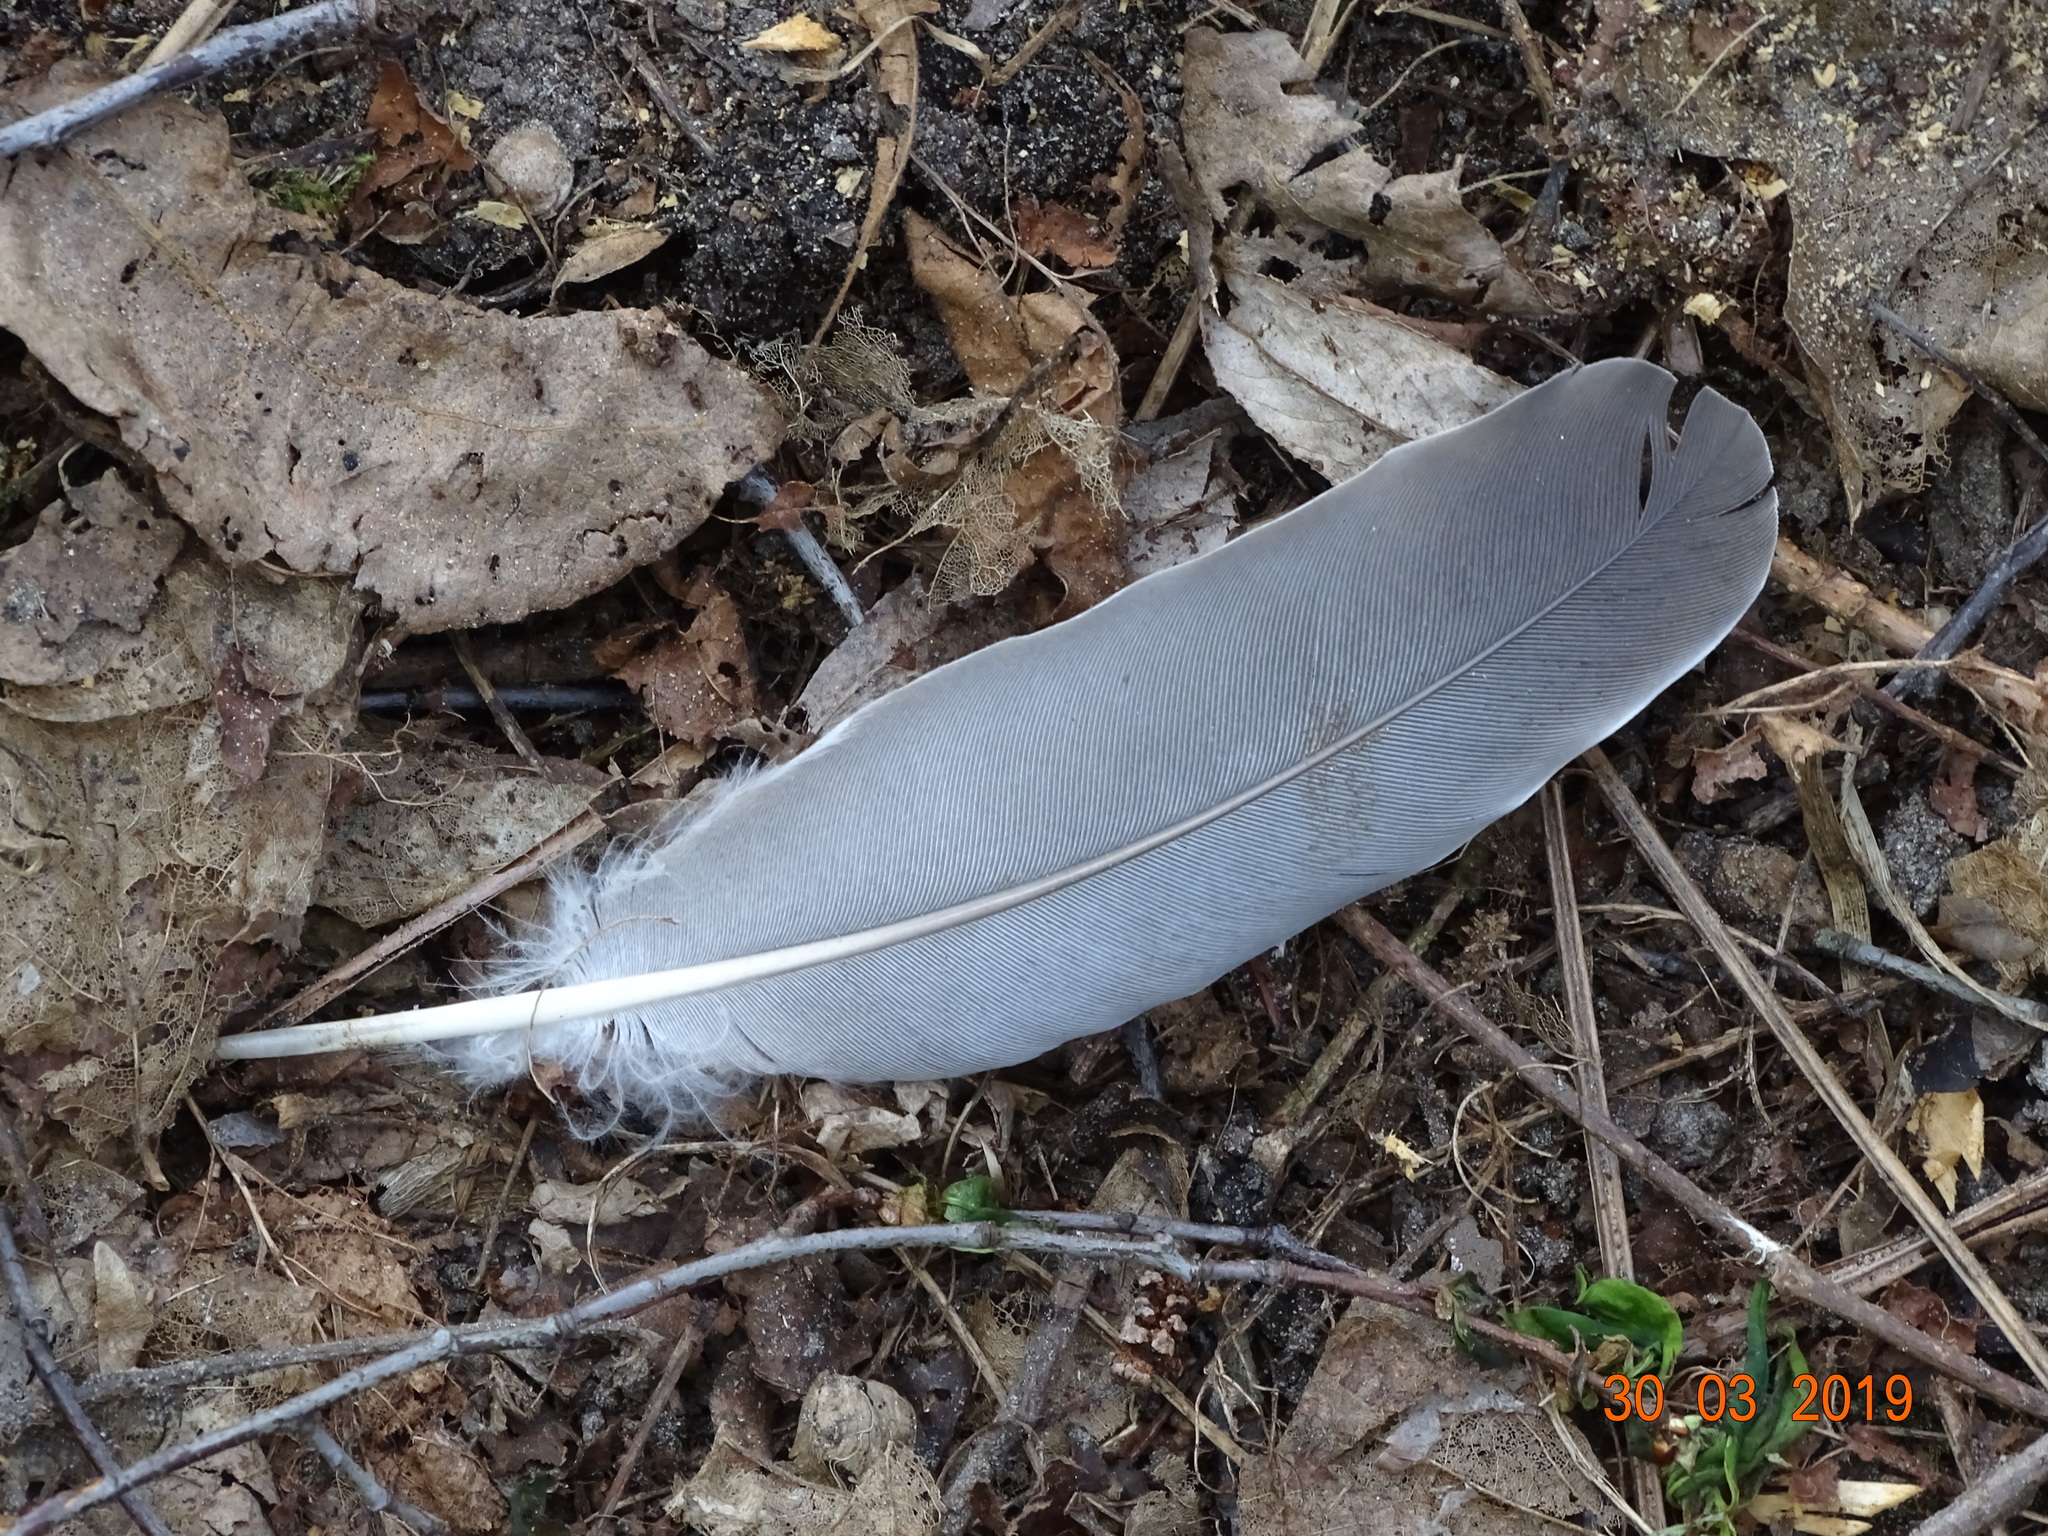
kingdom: Animalia
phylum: Chordata
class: Aves
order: Columbiformes
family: Columbidae
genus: Columba
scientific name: Columba palumbus
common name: Common wood pigeon
